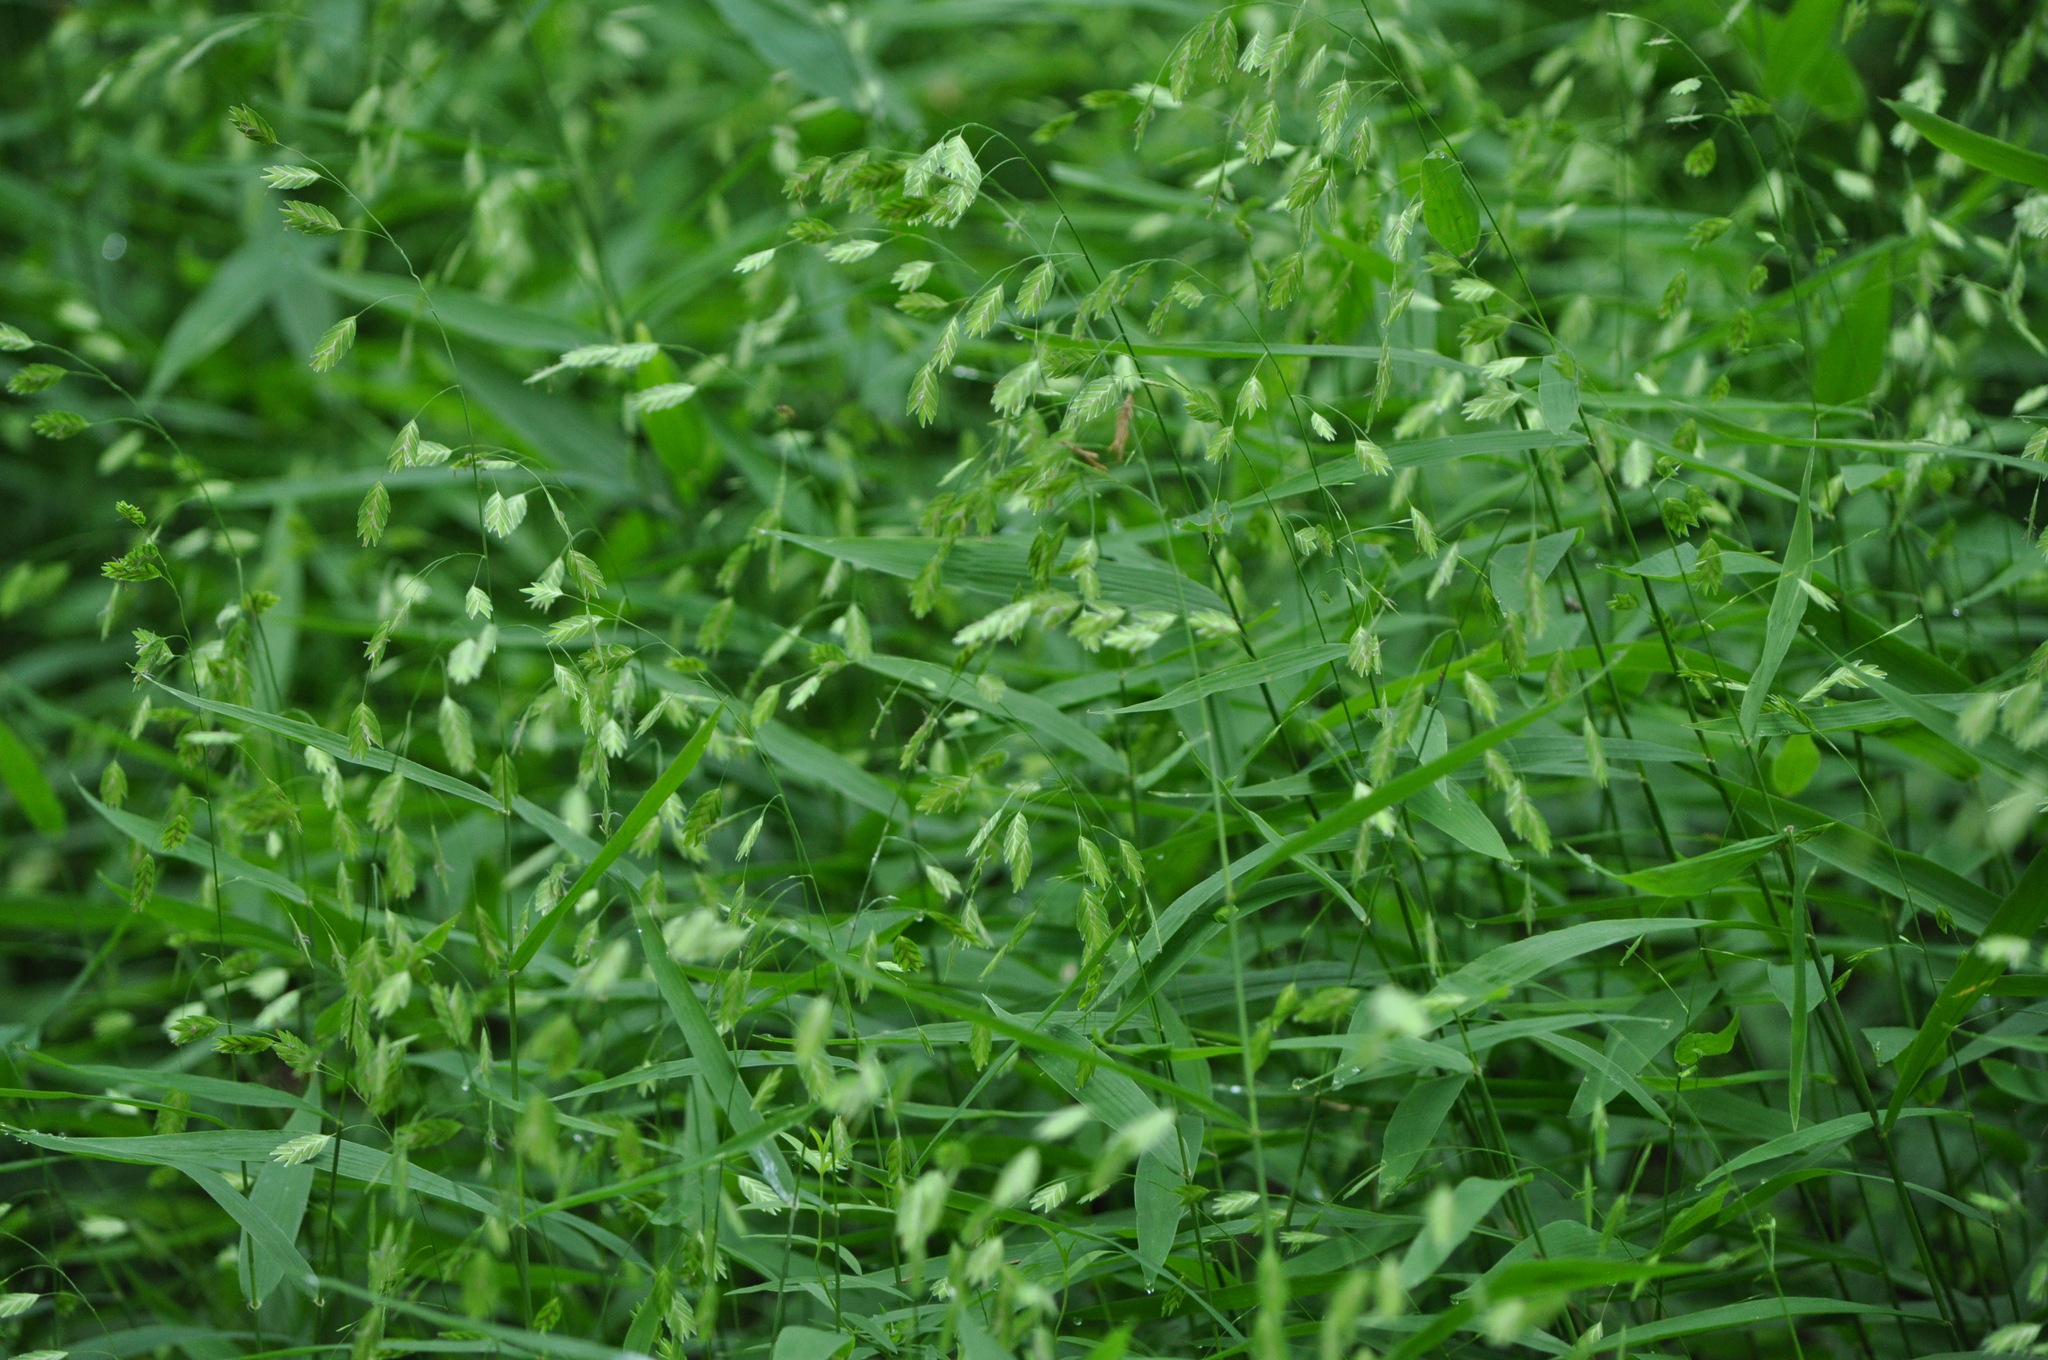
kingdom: Plantae
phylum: Tracheophyta
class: Liliopsida
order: Poales
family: Poaceae
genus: Chasmanthium
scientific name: Chasmanthium latifolium
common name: Broad-leaved chasmanthium
